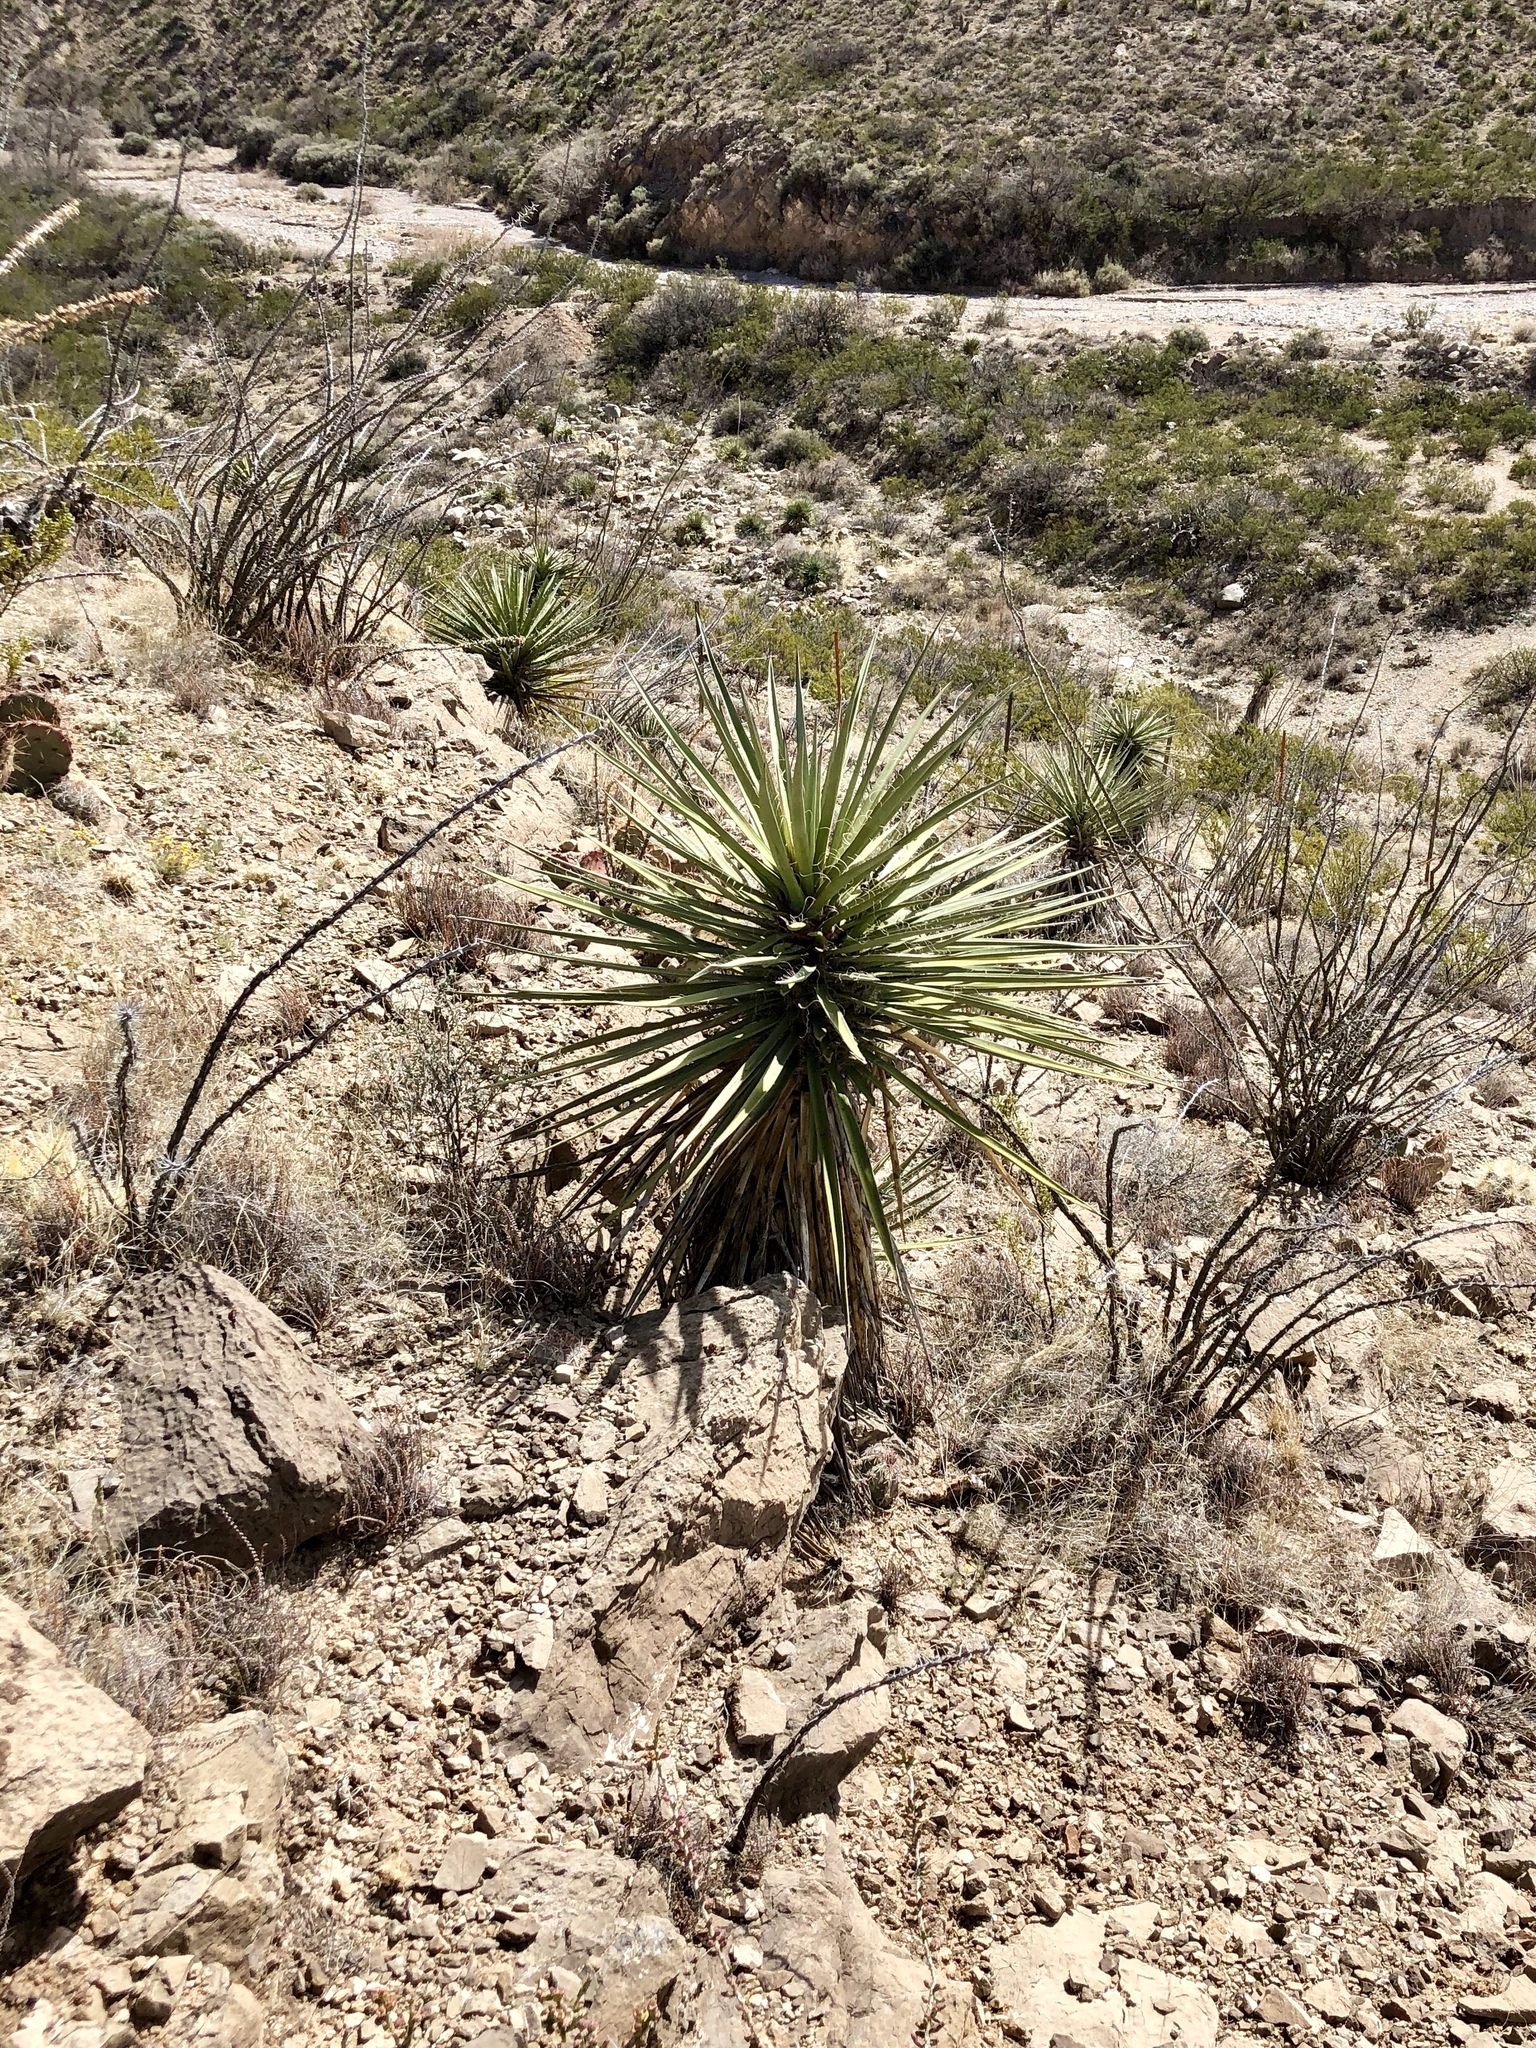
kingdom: Plantae
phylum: Tracheophyta
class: Liliopsida
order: Asparagales
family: Asparagaceae
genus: Yucca
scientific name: Yucca treculiana
